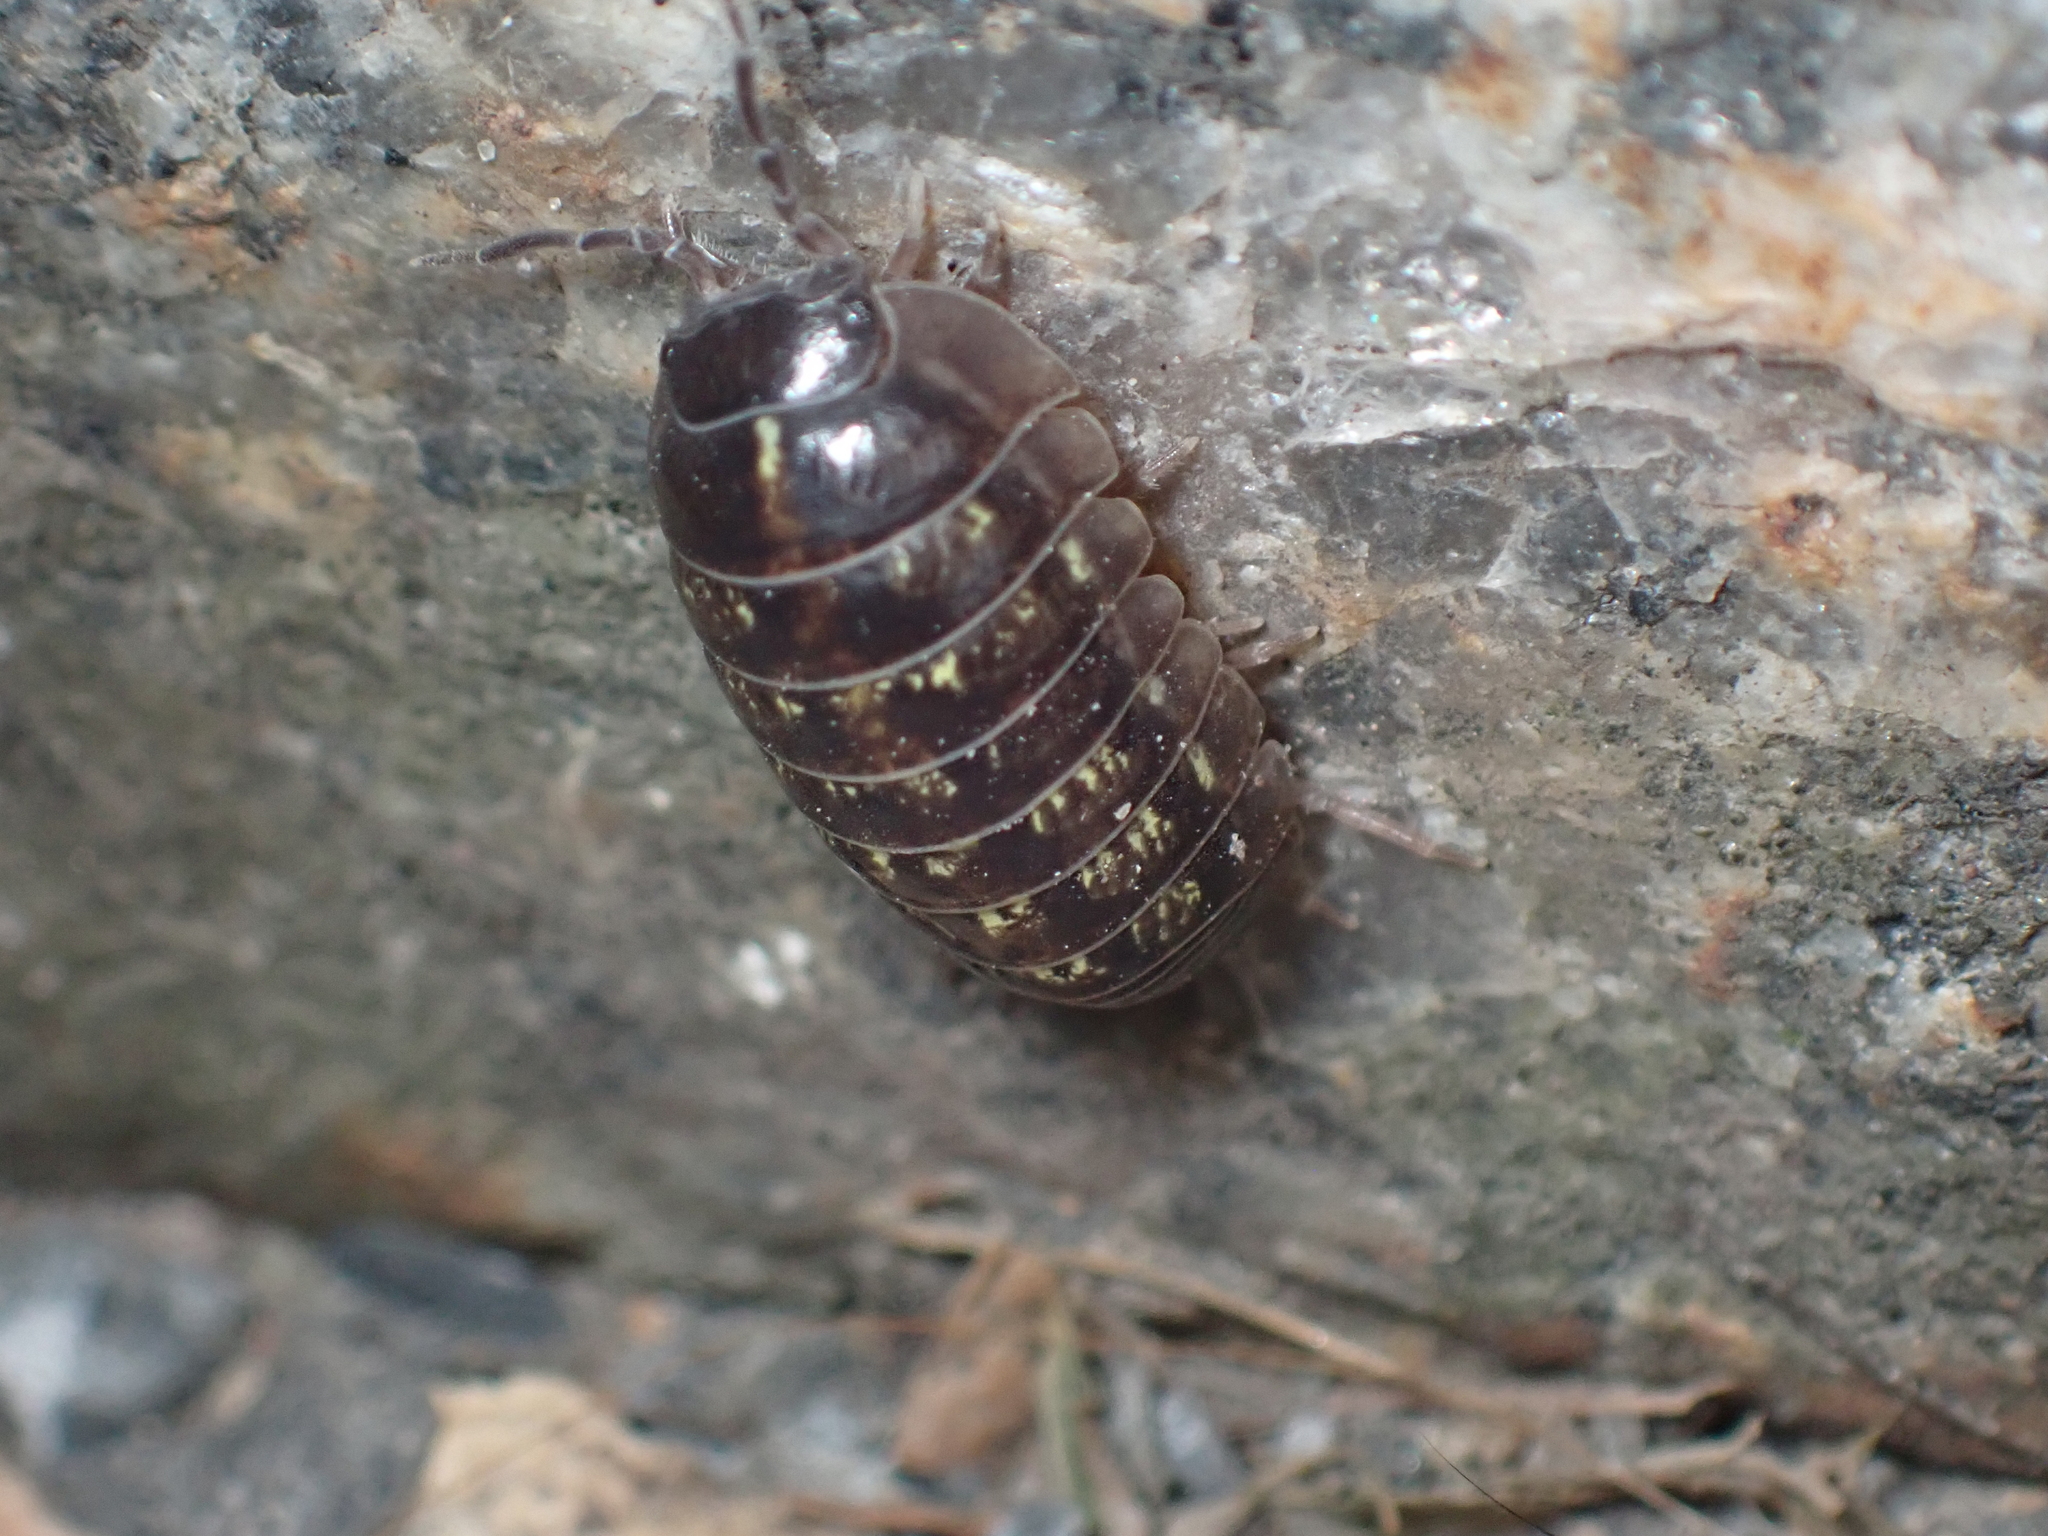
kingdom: Animalia
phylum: Arthropoda
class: Malacostraca
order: Isopoda
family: Armadillidiidae
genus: Armadillidium
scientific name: Armadillidium vulgare
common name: Common pill woodlouse
